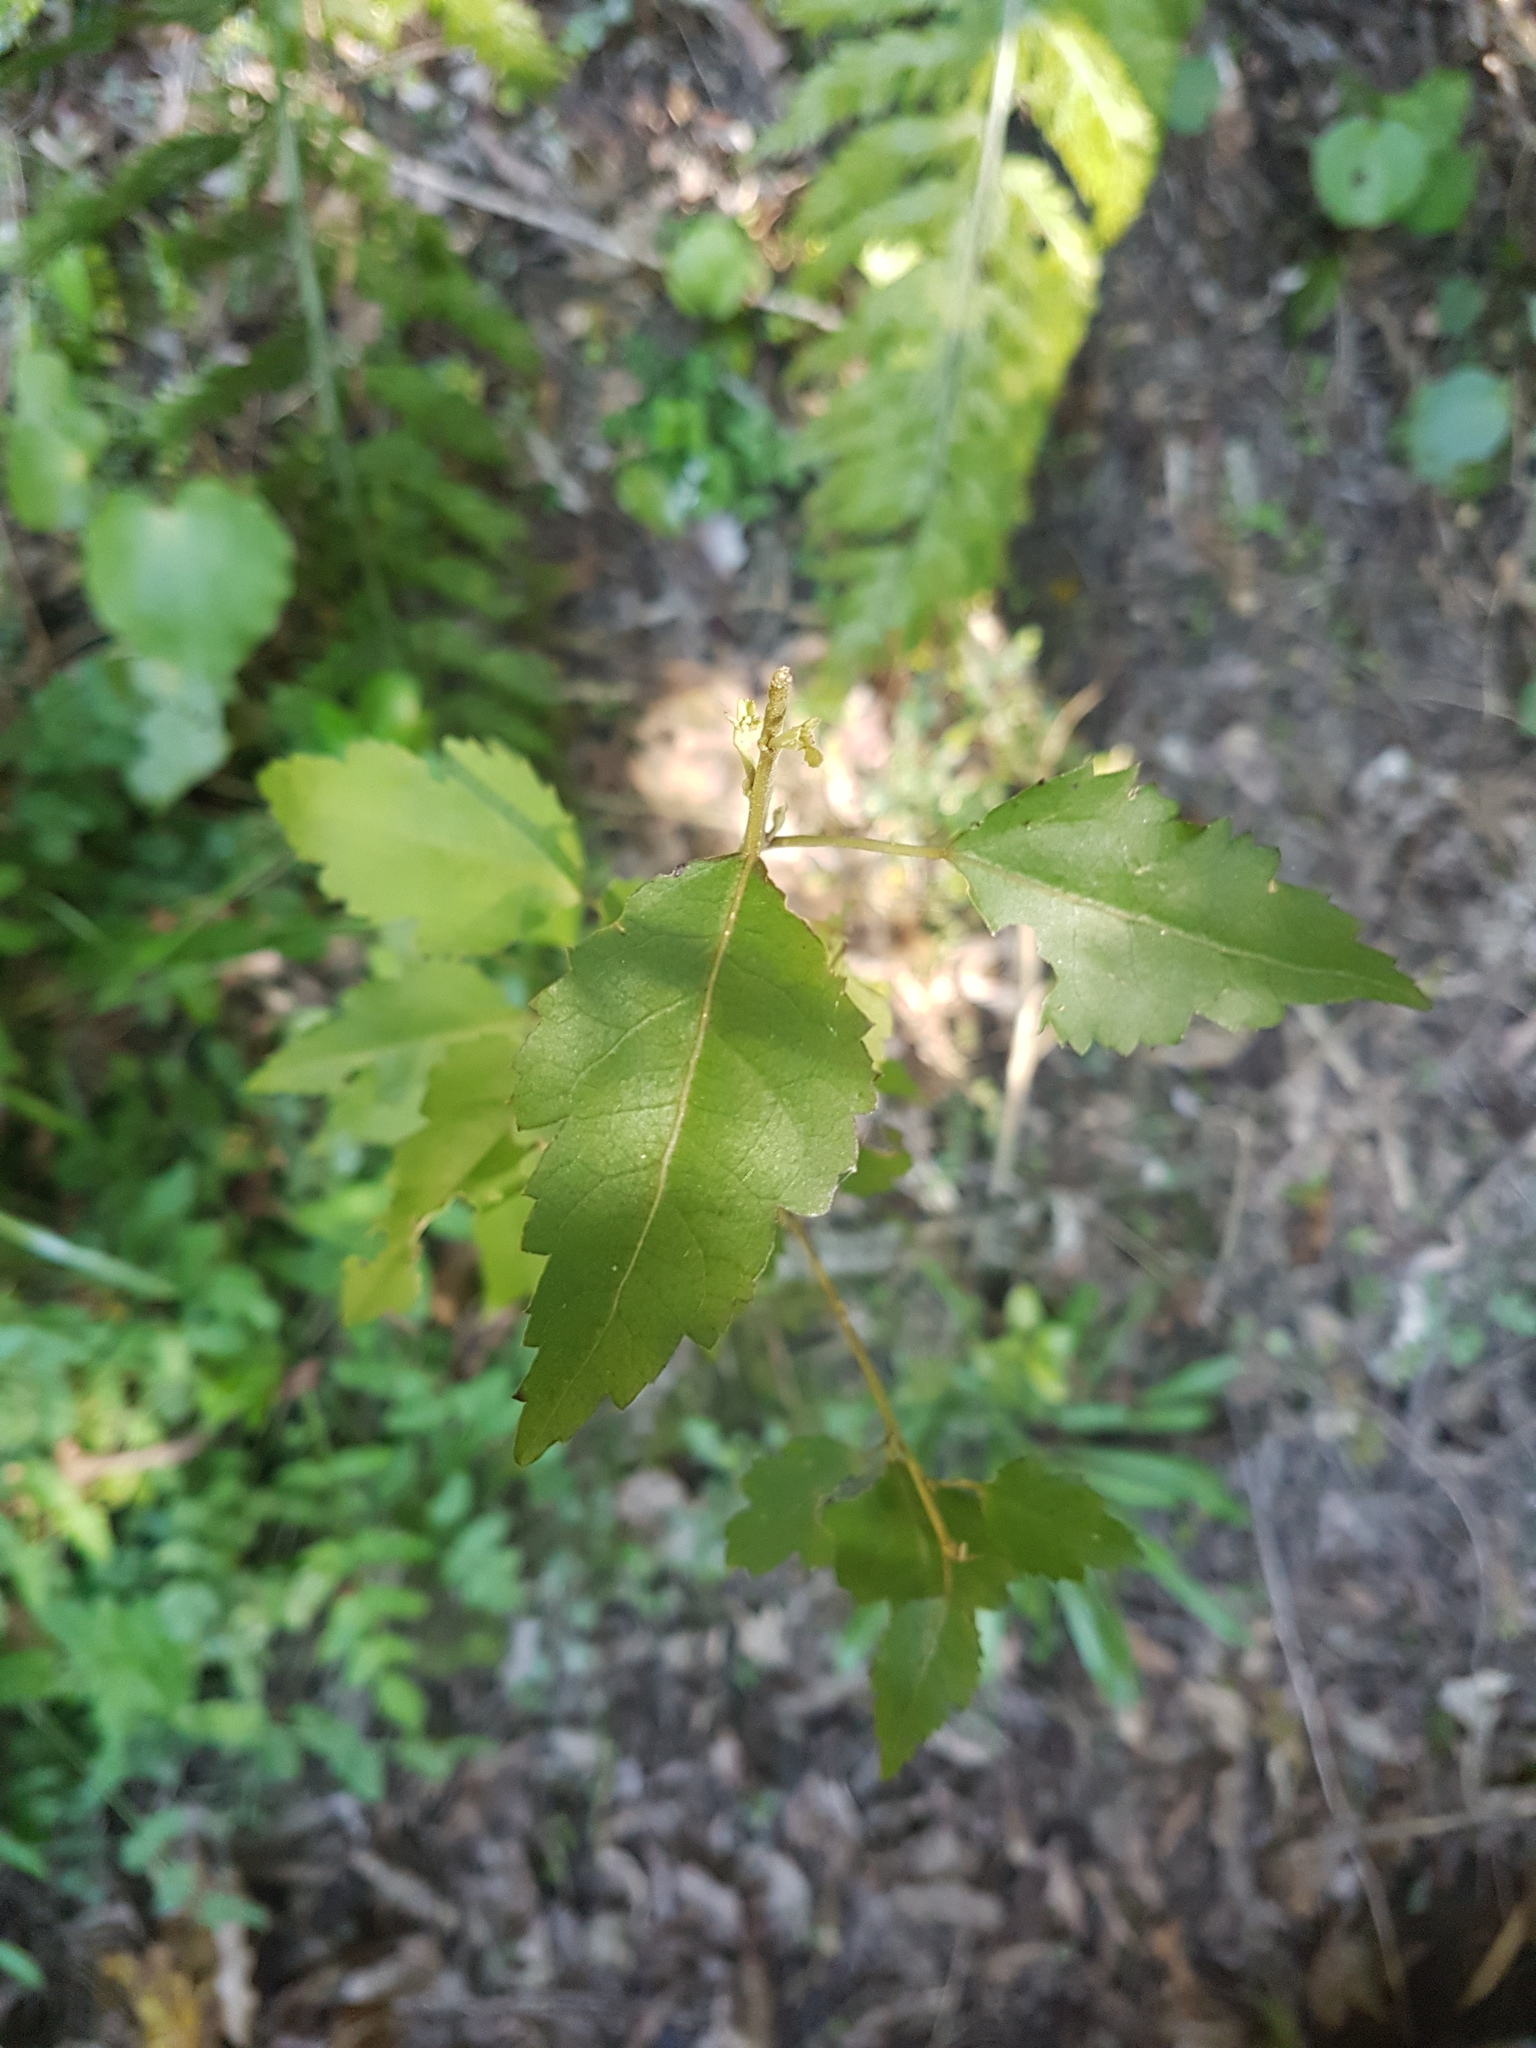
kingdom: Plantae
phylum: Tracheophyta
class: Magnoliopsida
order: Malvales
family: Malvaceae
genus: Hoheria
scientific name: Hoheria sexstylosa
